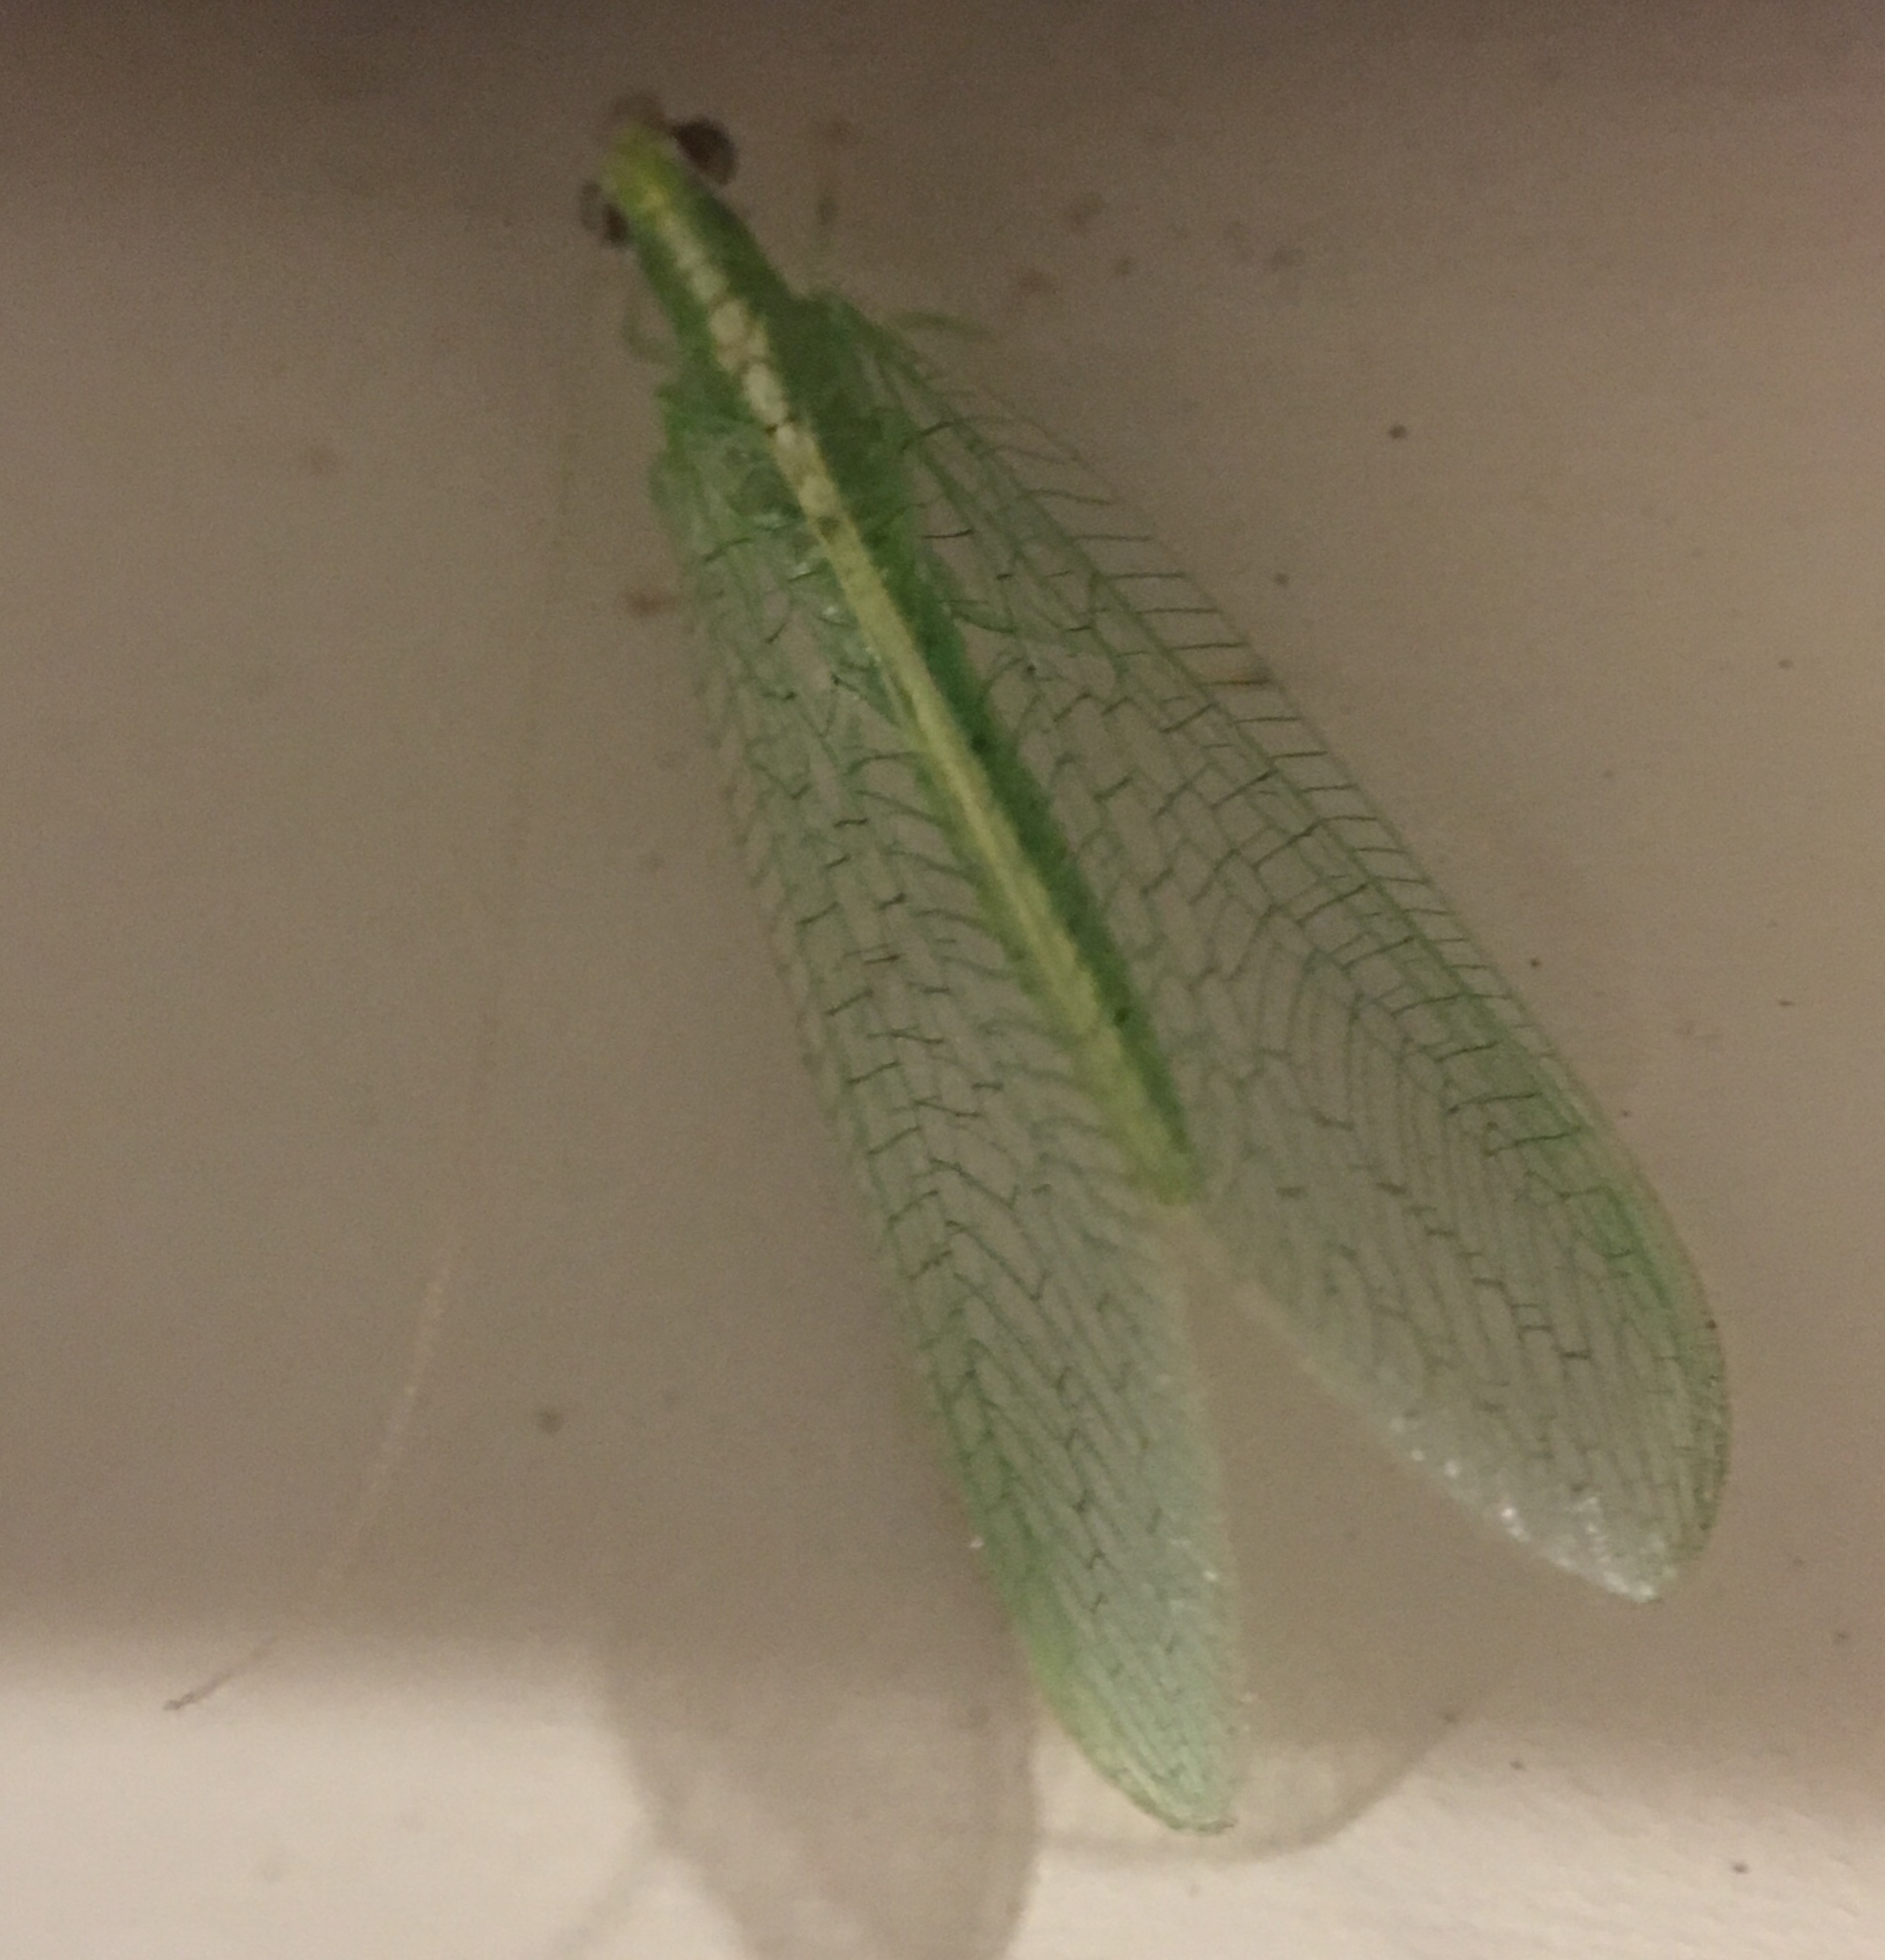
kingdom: Animalia
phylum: Arthropoda
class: Insecta
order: Neuroptera
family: Chrysopidae
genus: Chrysoperla
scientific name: Chrysoperla
